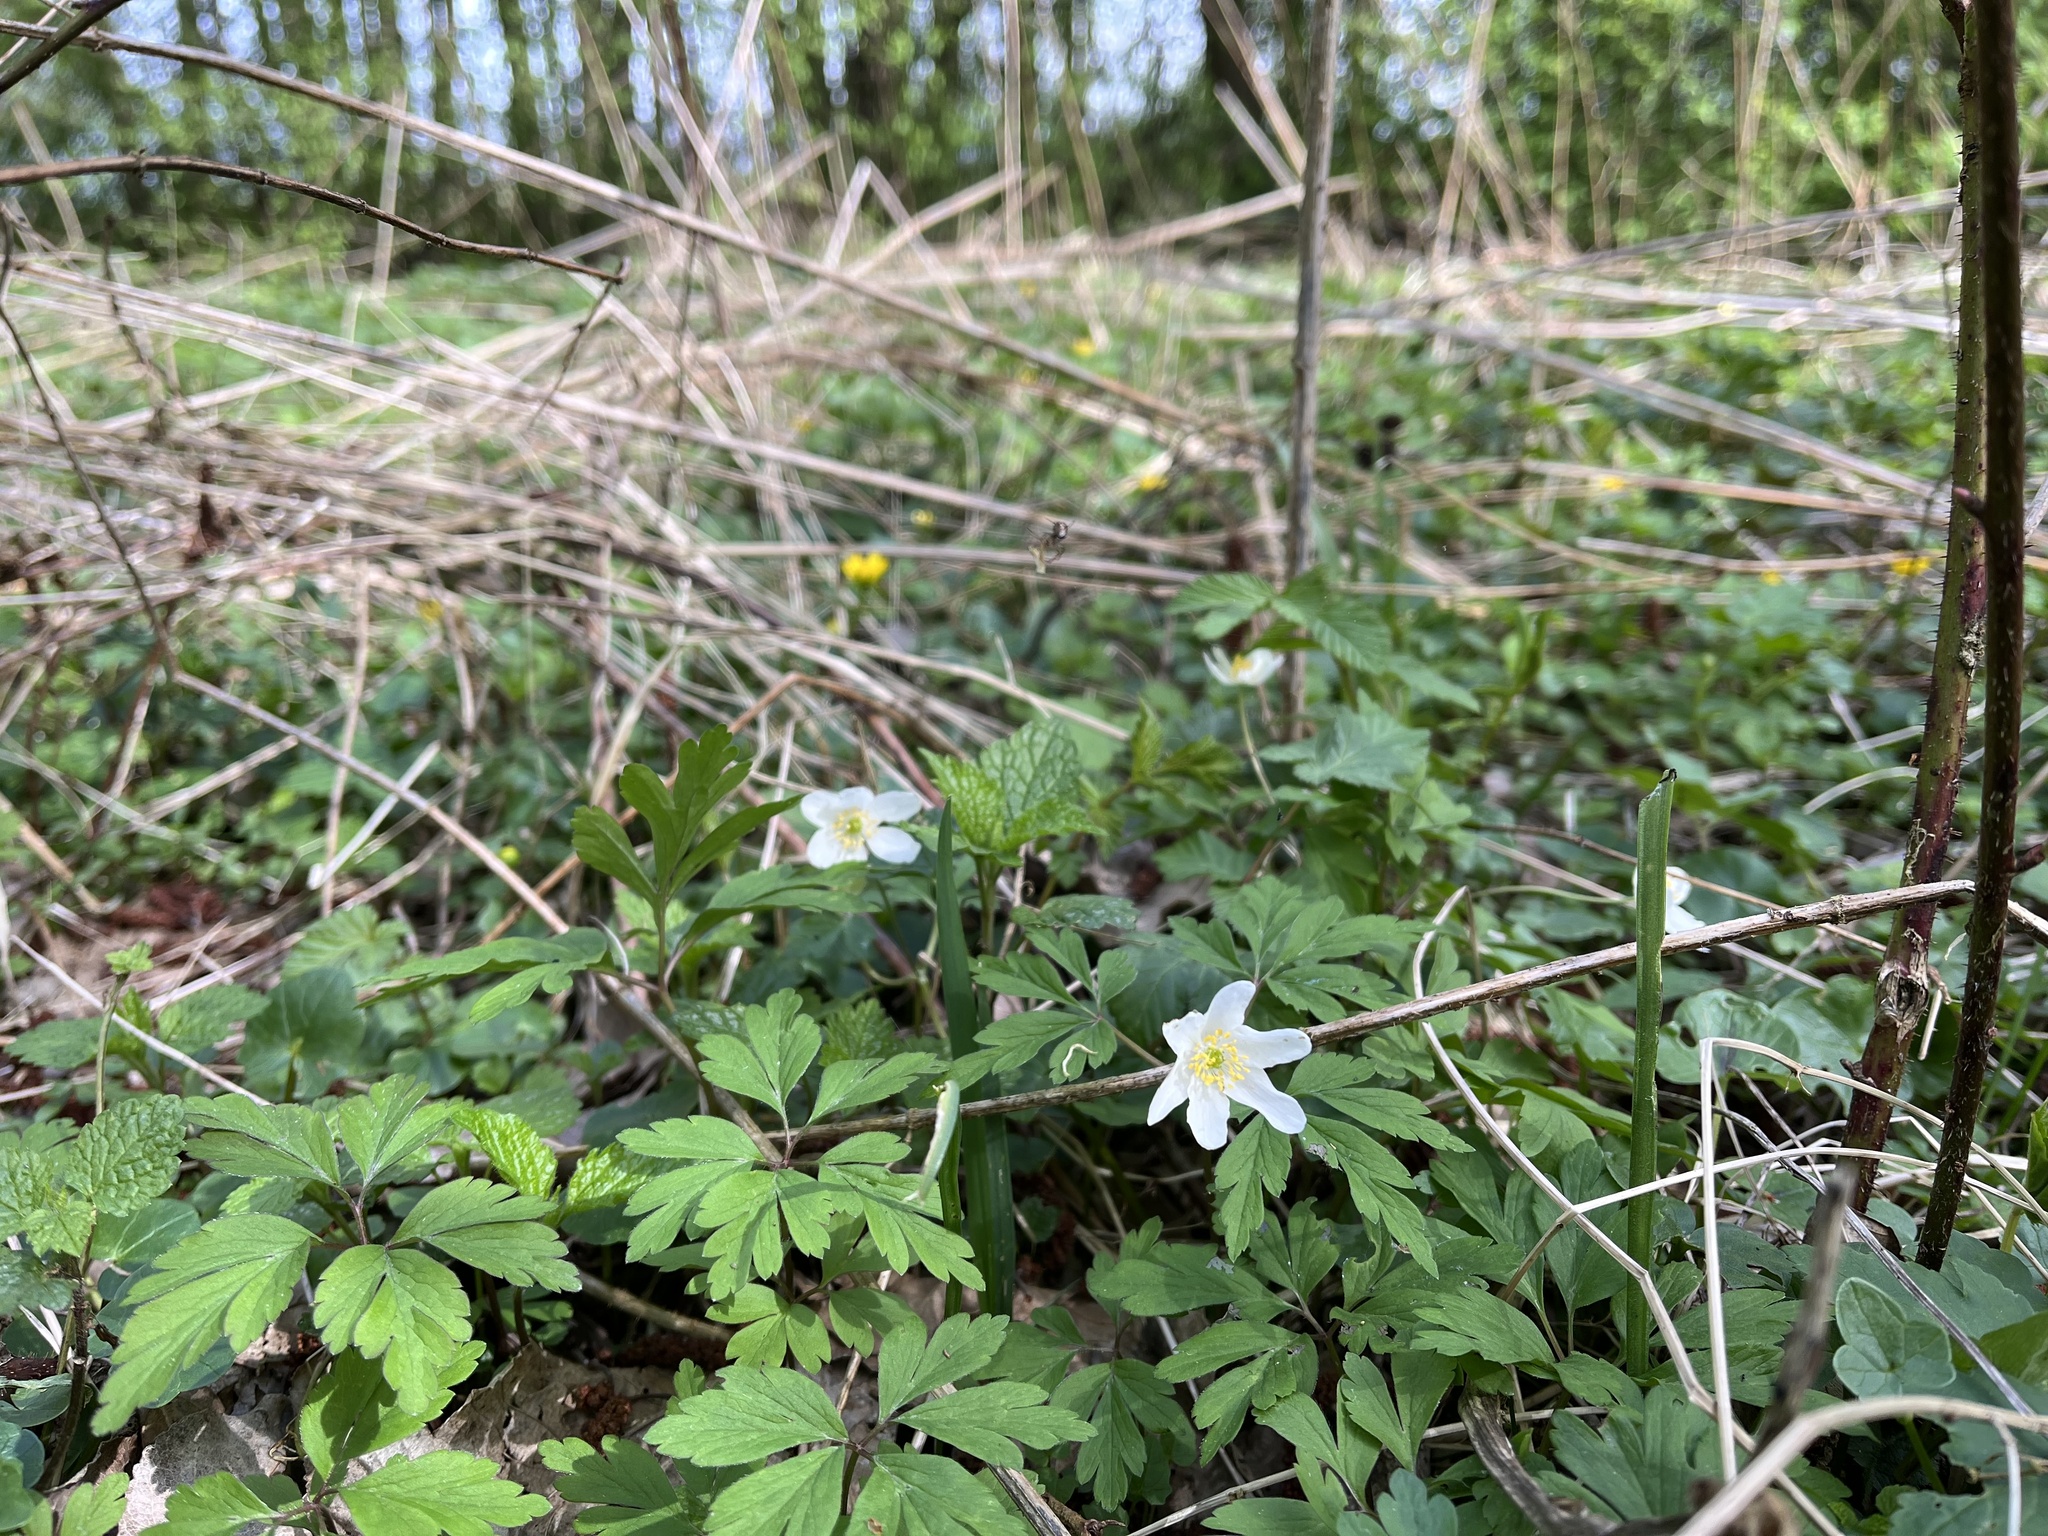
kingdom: Plantae
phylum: Tracheophyta
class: Magnoliopsida
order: Ranunculales
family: Ranunculaceae
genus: Anemone
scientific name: Anemone nemorosa
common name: Wood anemone
